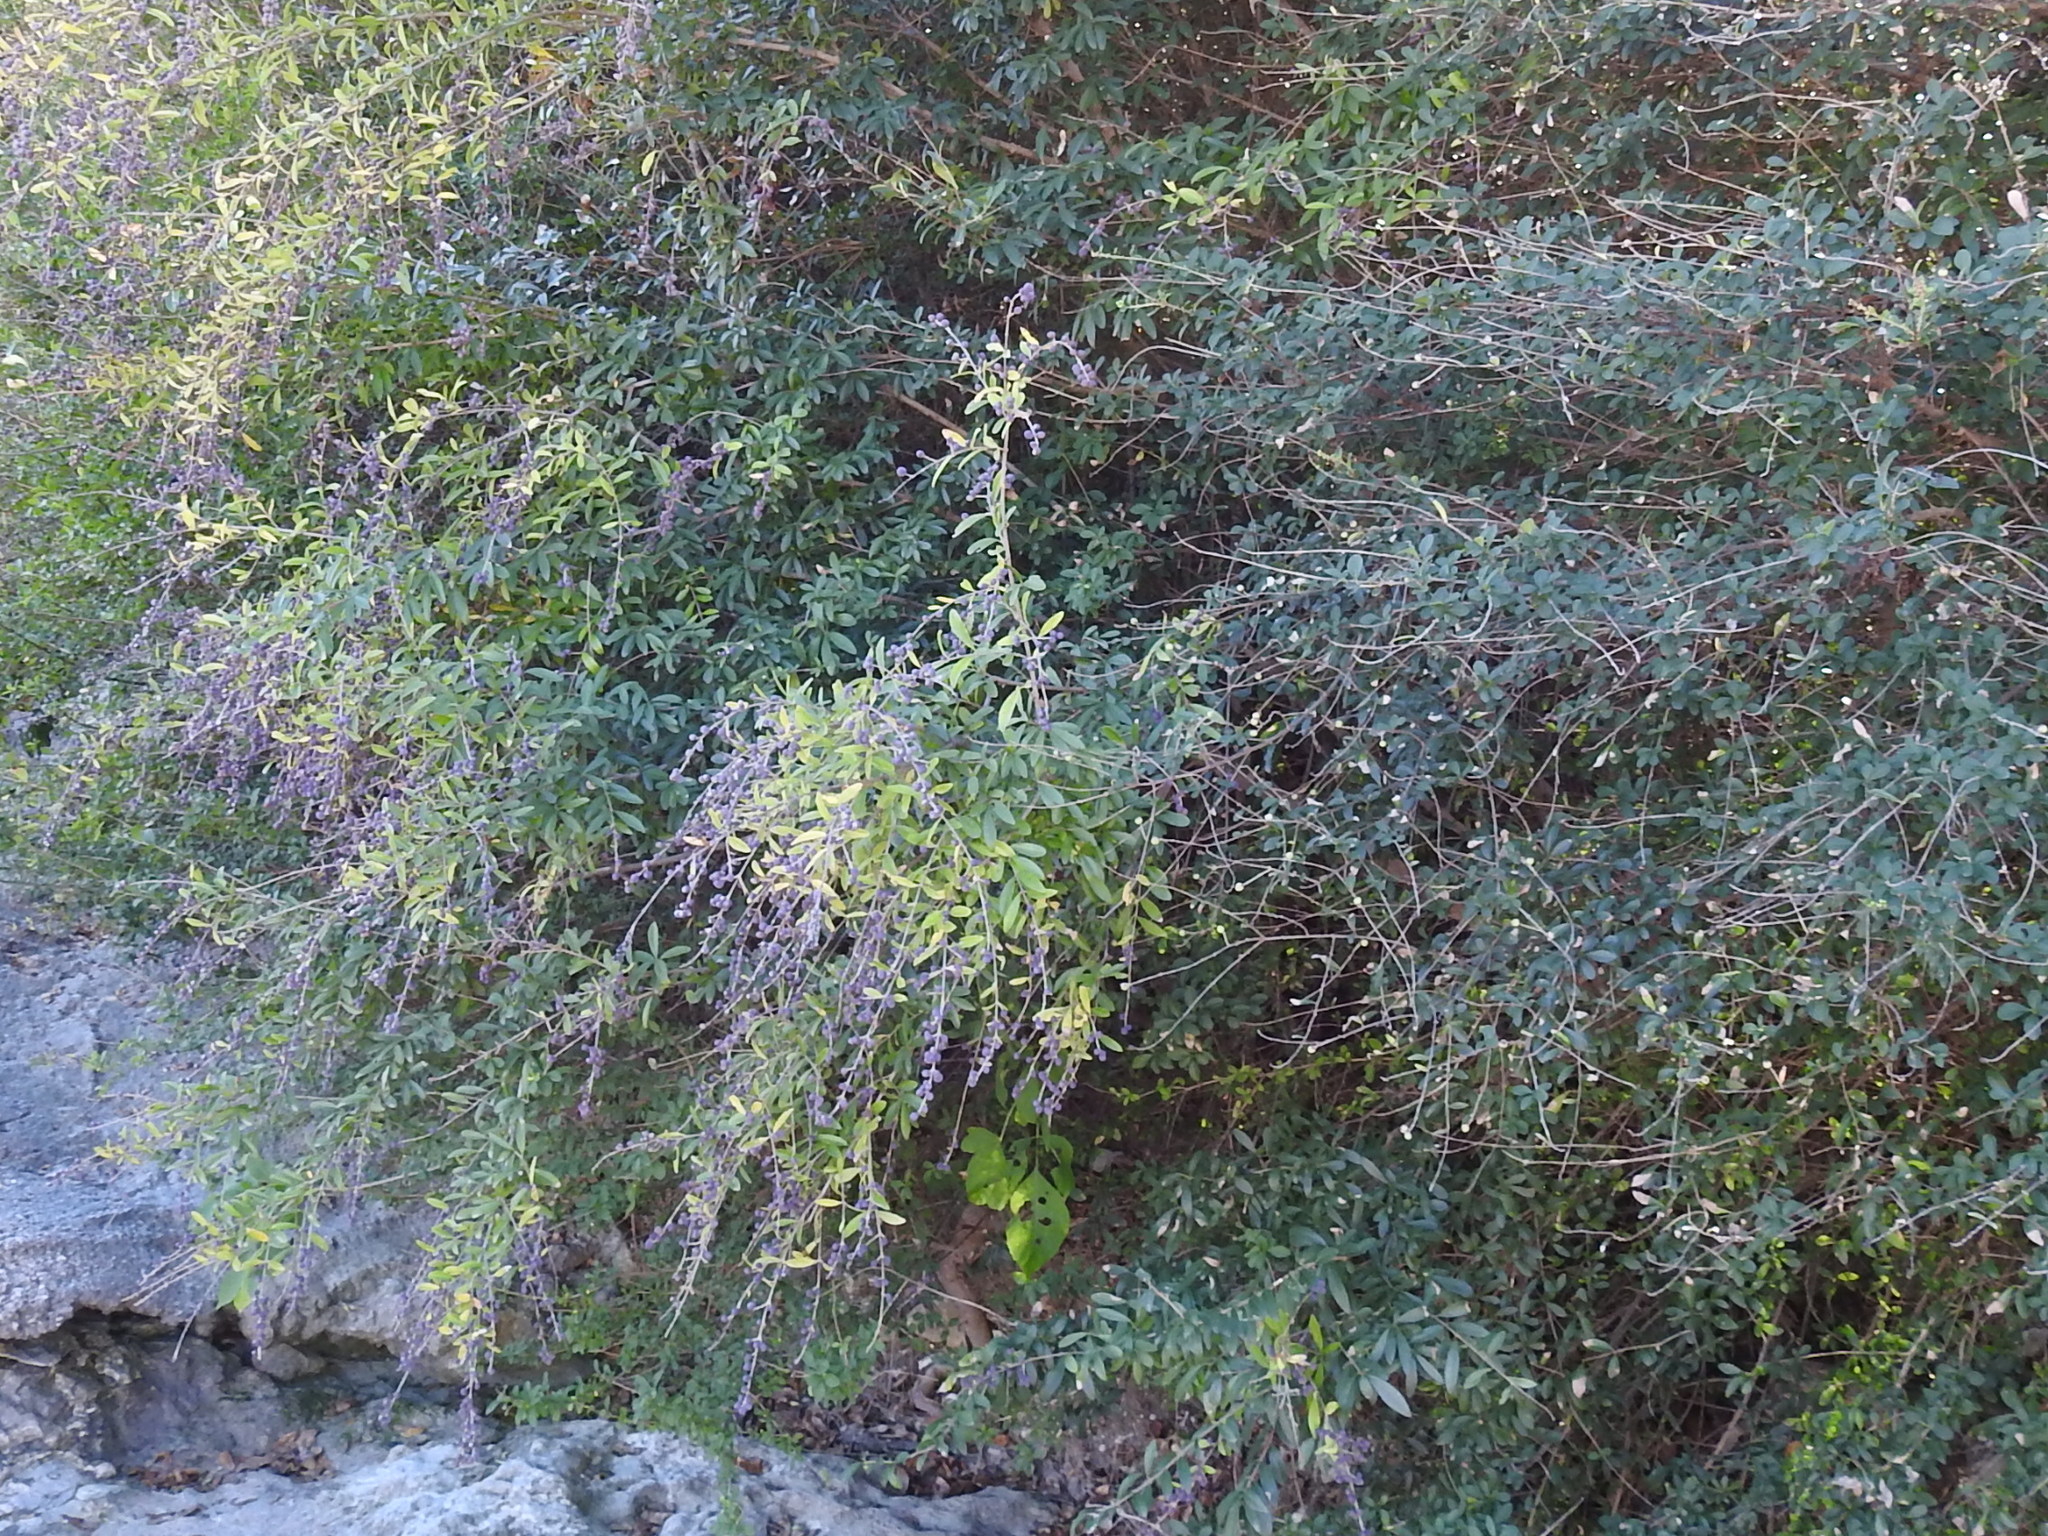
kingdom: Plantae
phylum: Tracheophyta
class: Magnoliopsida
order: Lamiales
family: Oleaceae
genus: Ligustrum
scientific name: Ligustrum quihoui
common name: Waxyleaf privet
